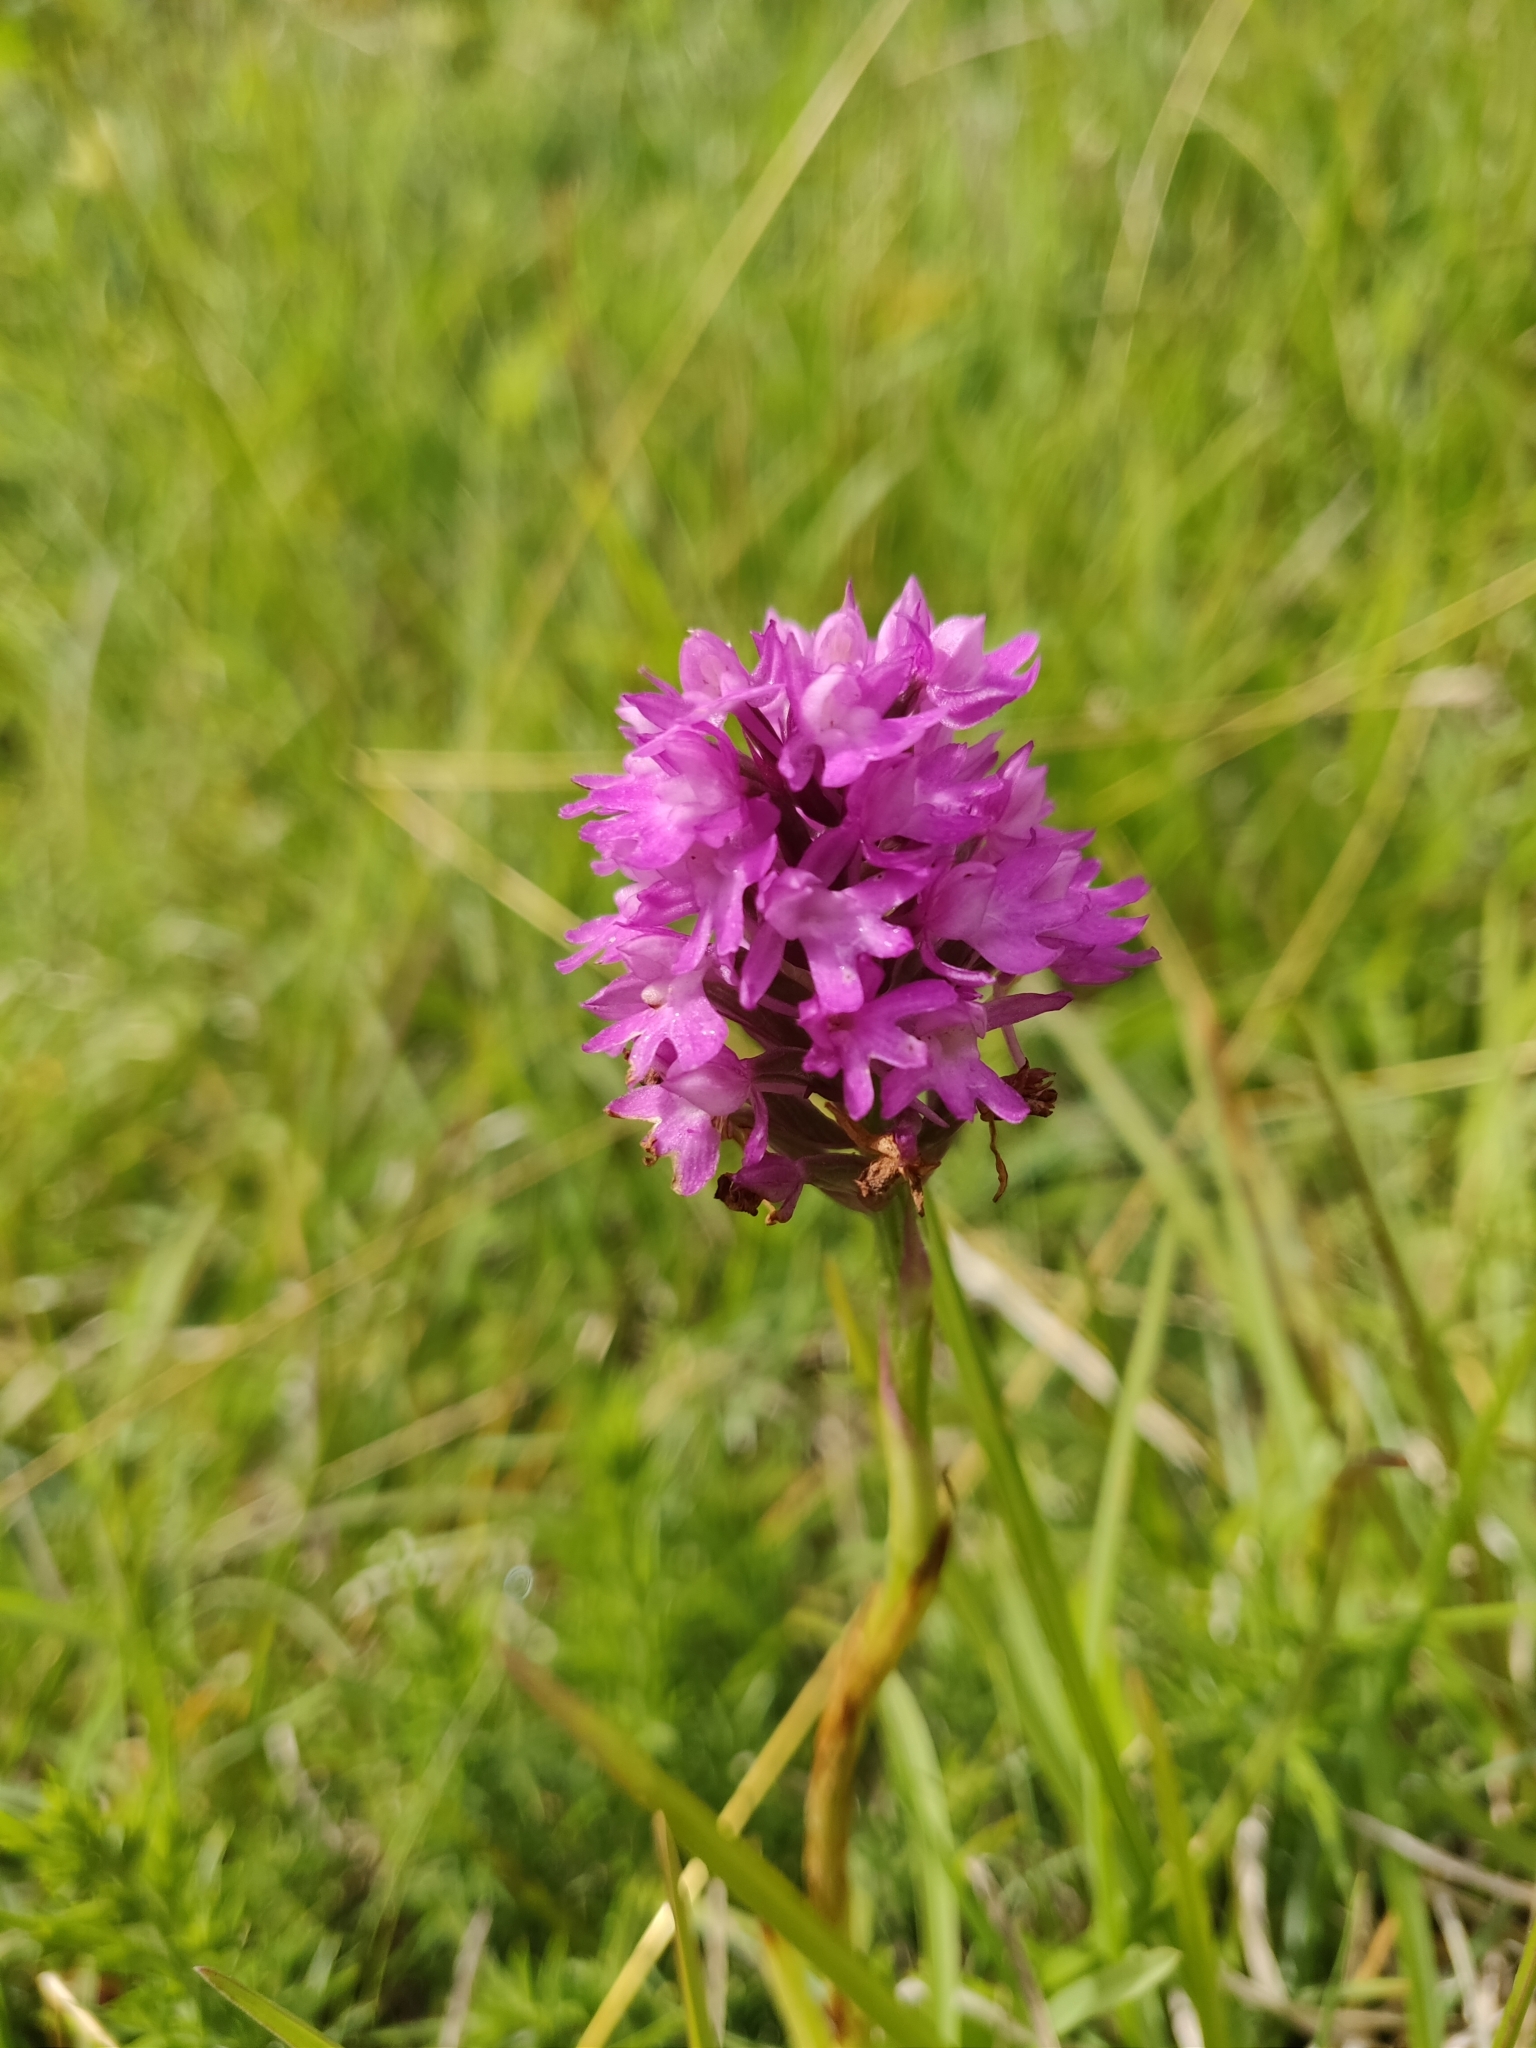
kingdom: Plantae
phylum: Tracheophyta
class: Liliopsida
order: Asparagales
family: Orchidaceae
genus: Anacamptis
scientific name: Anacamptis pyramidalis
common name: Pyramidal orchid
